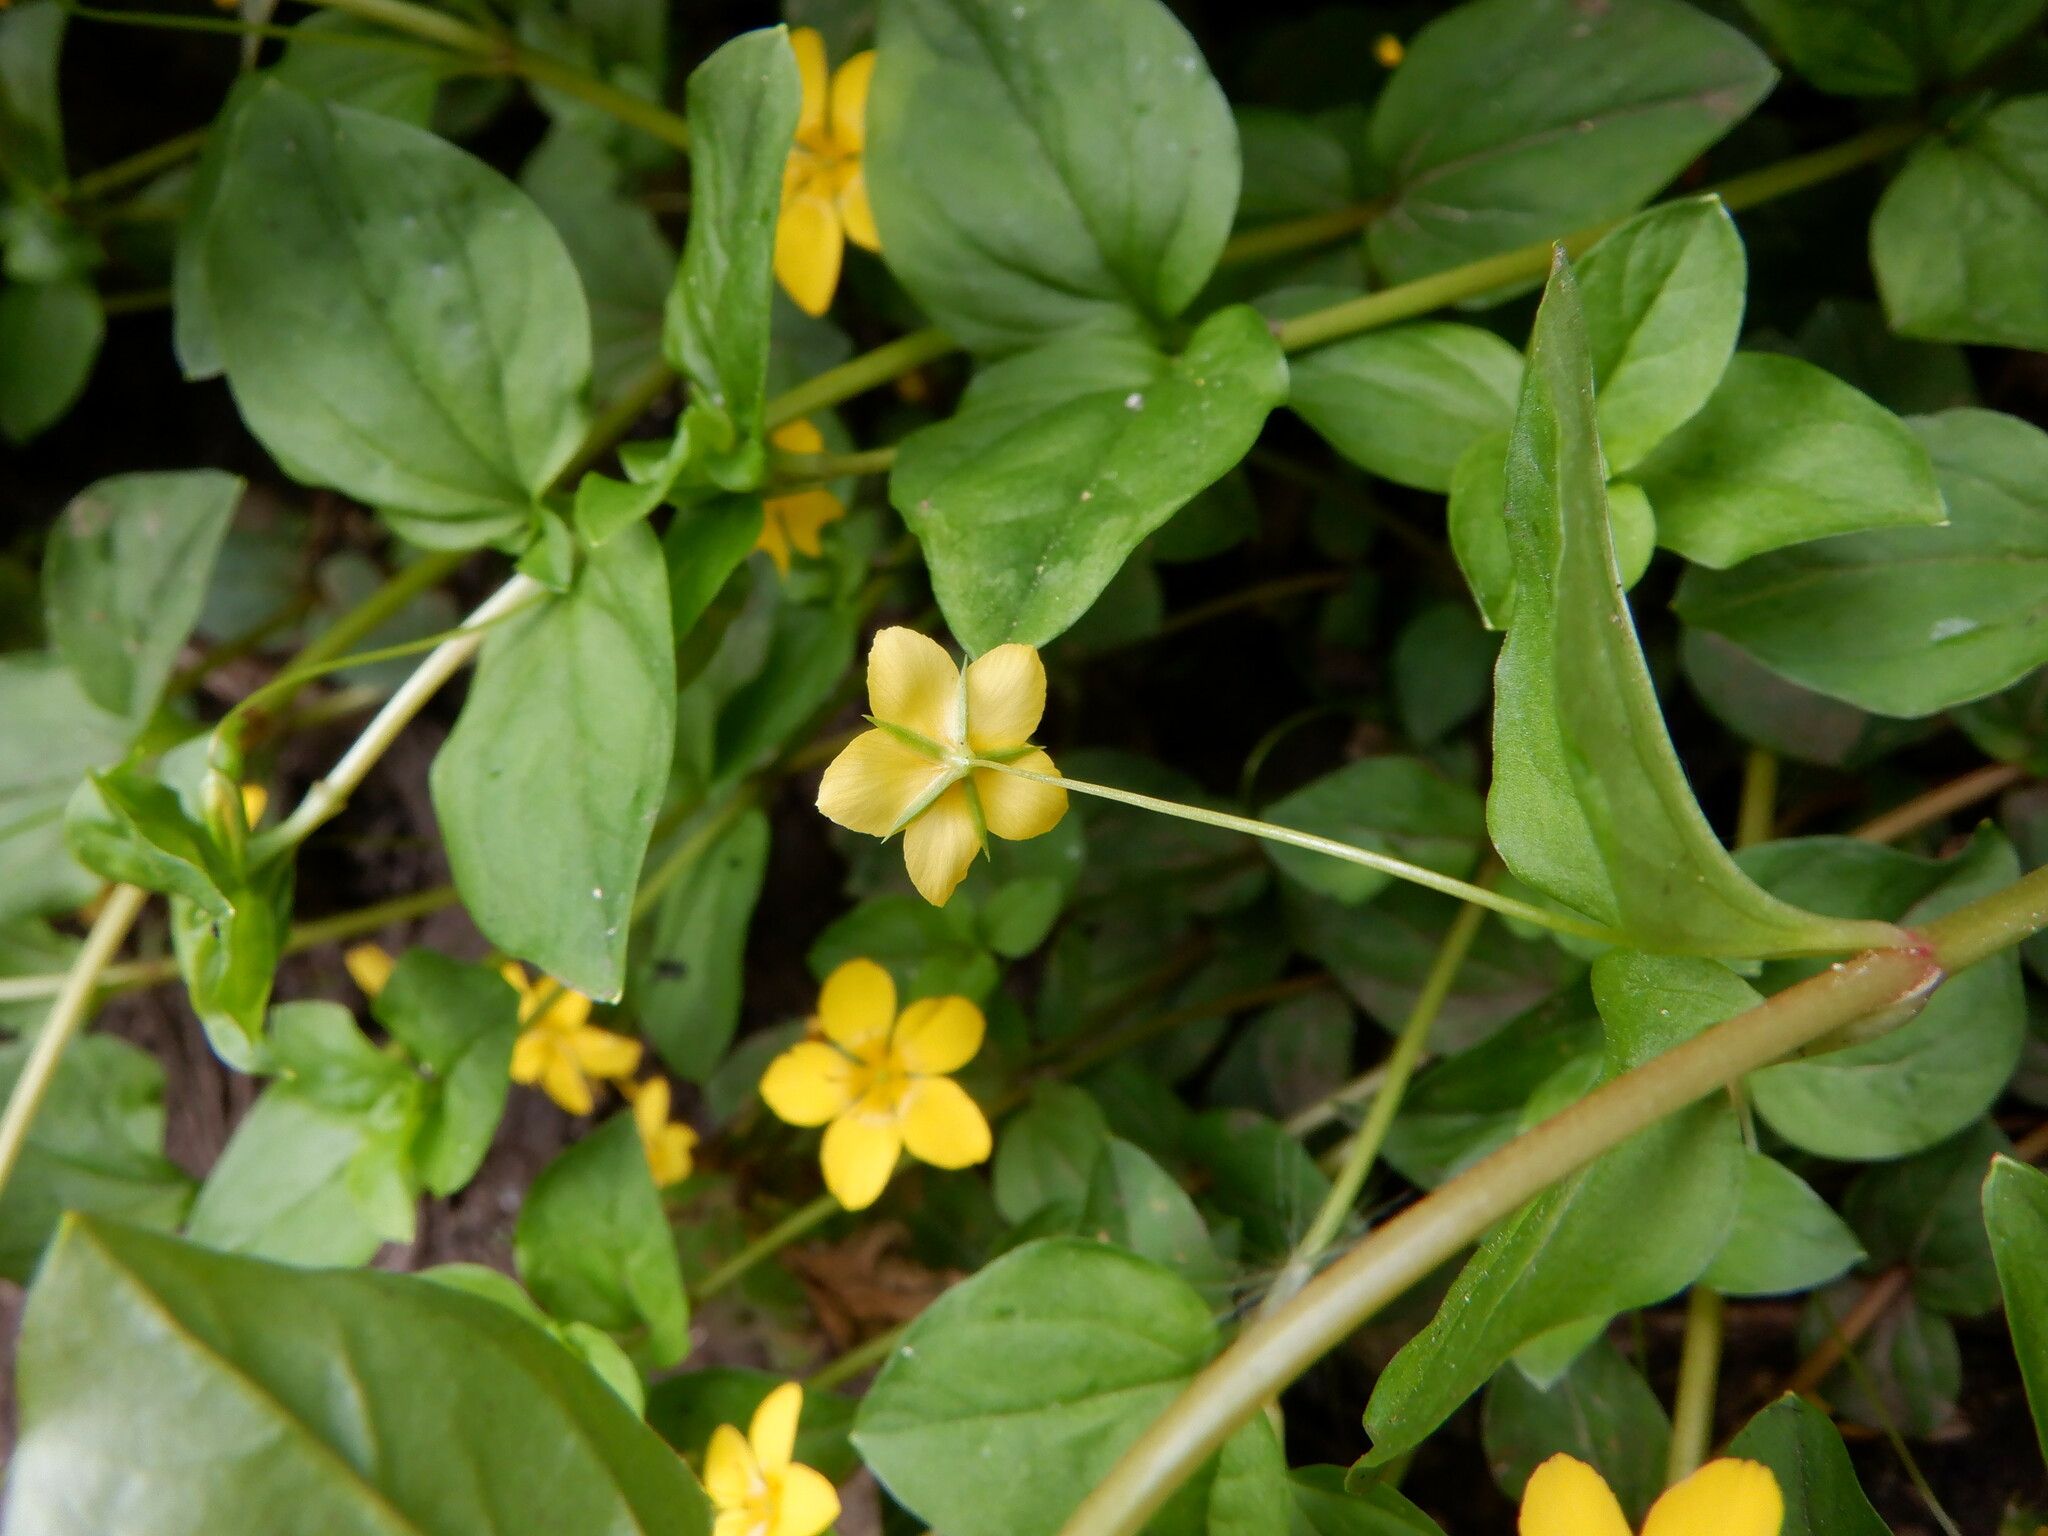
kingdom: Plantae
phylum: Tracheophyta
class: Magnoliopsida
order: Ericales
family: Primulaceae
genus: Lysimachia
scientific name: Lysimachia nemorum
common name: Yellow pimpernel
